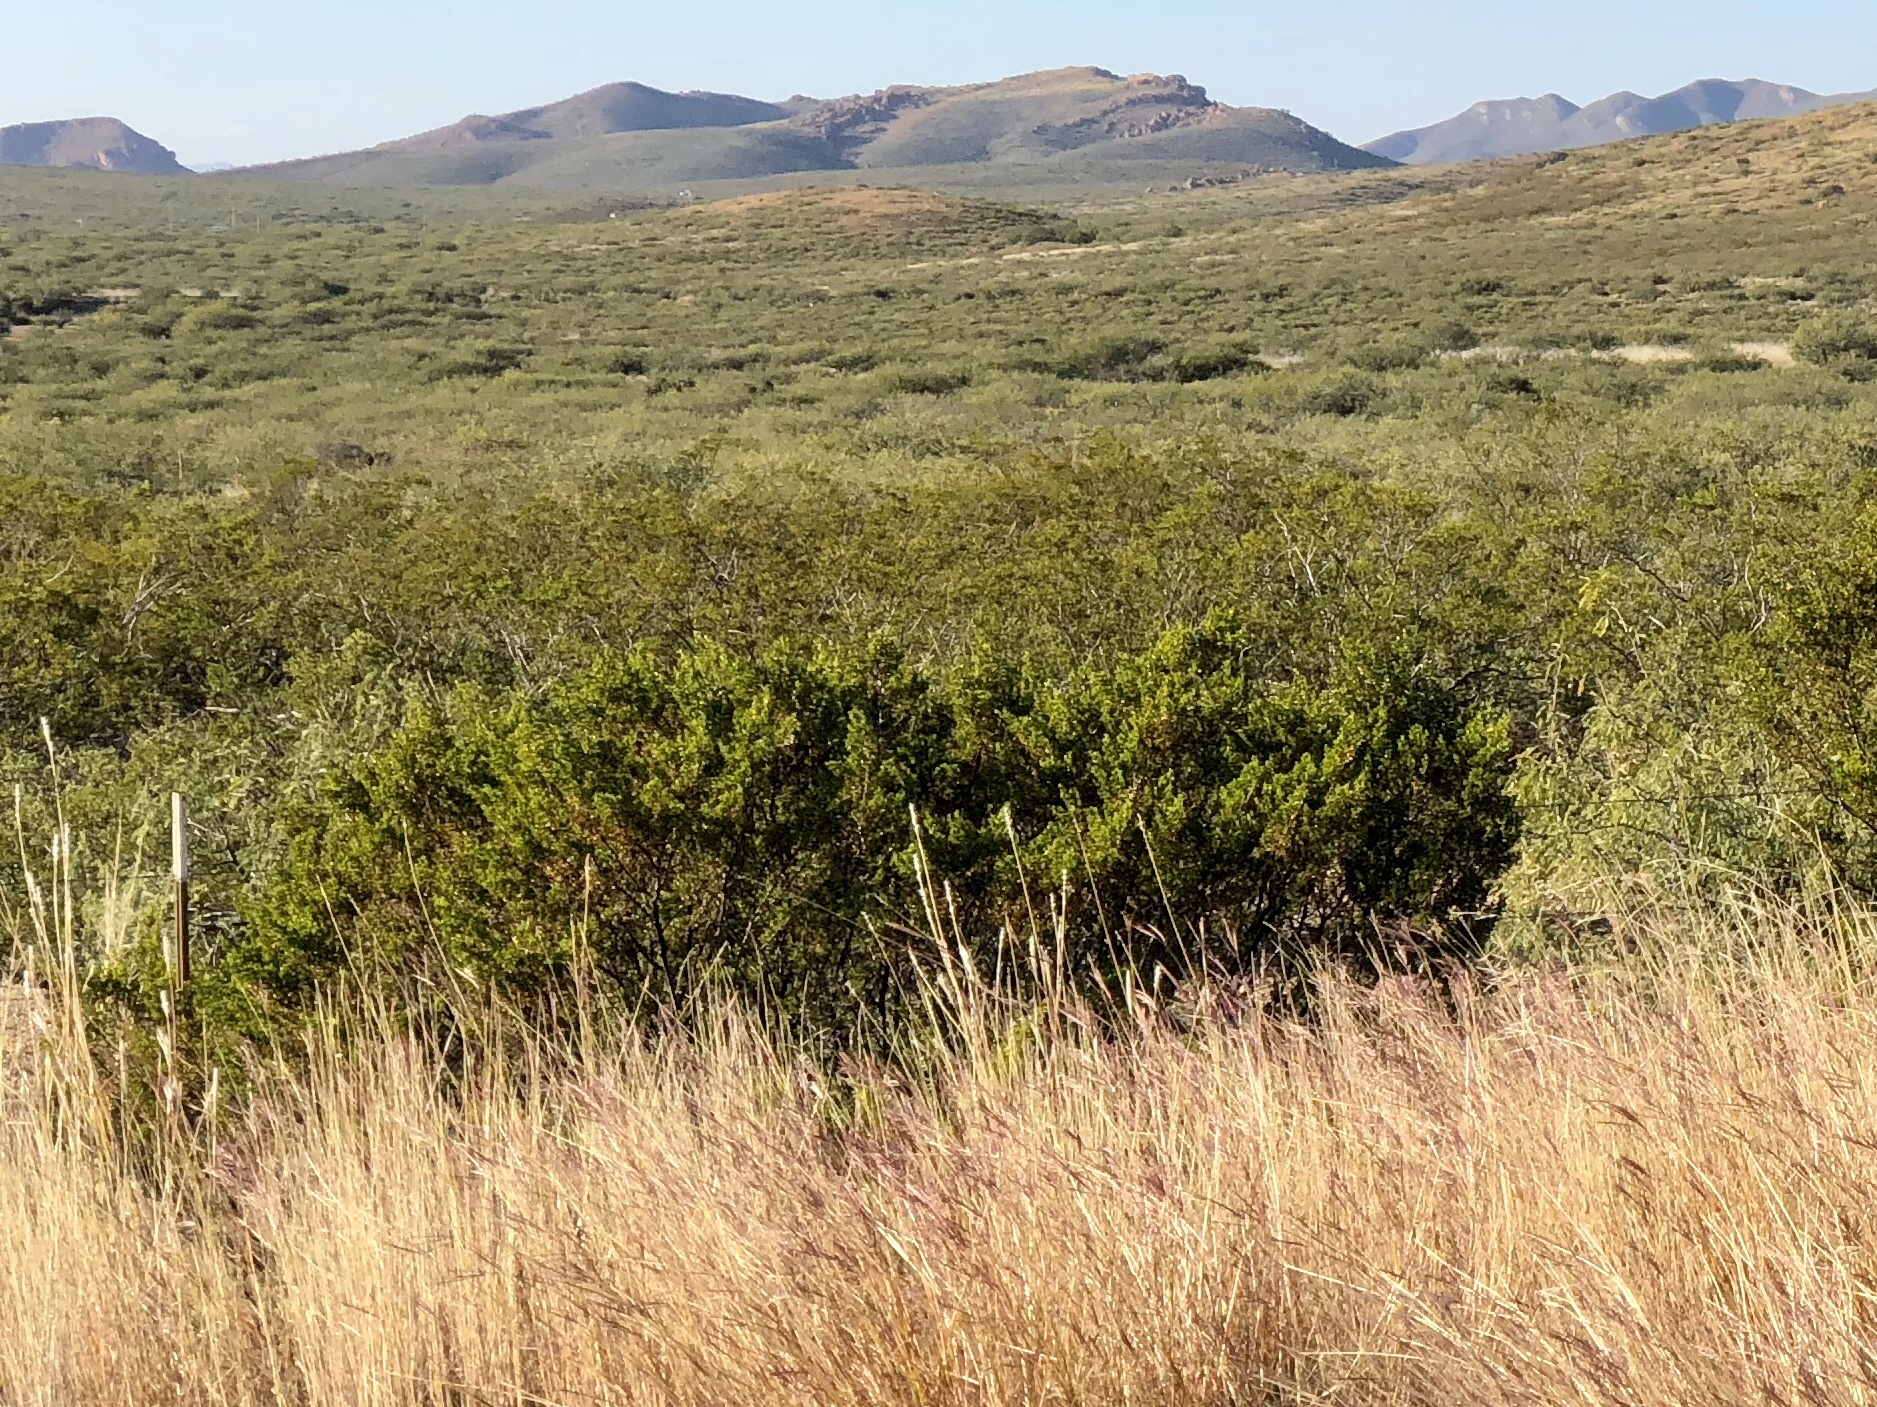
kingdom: Plantae
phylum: Tracheophyta
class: Magnoliopsida
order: Zygophyllales
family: Zygophyllaceae
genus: Larrea
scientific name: Larrea tridentata
